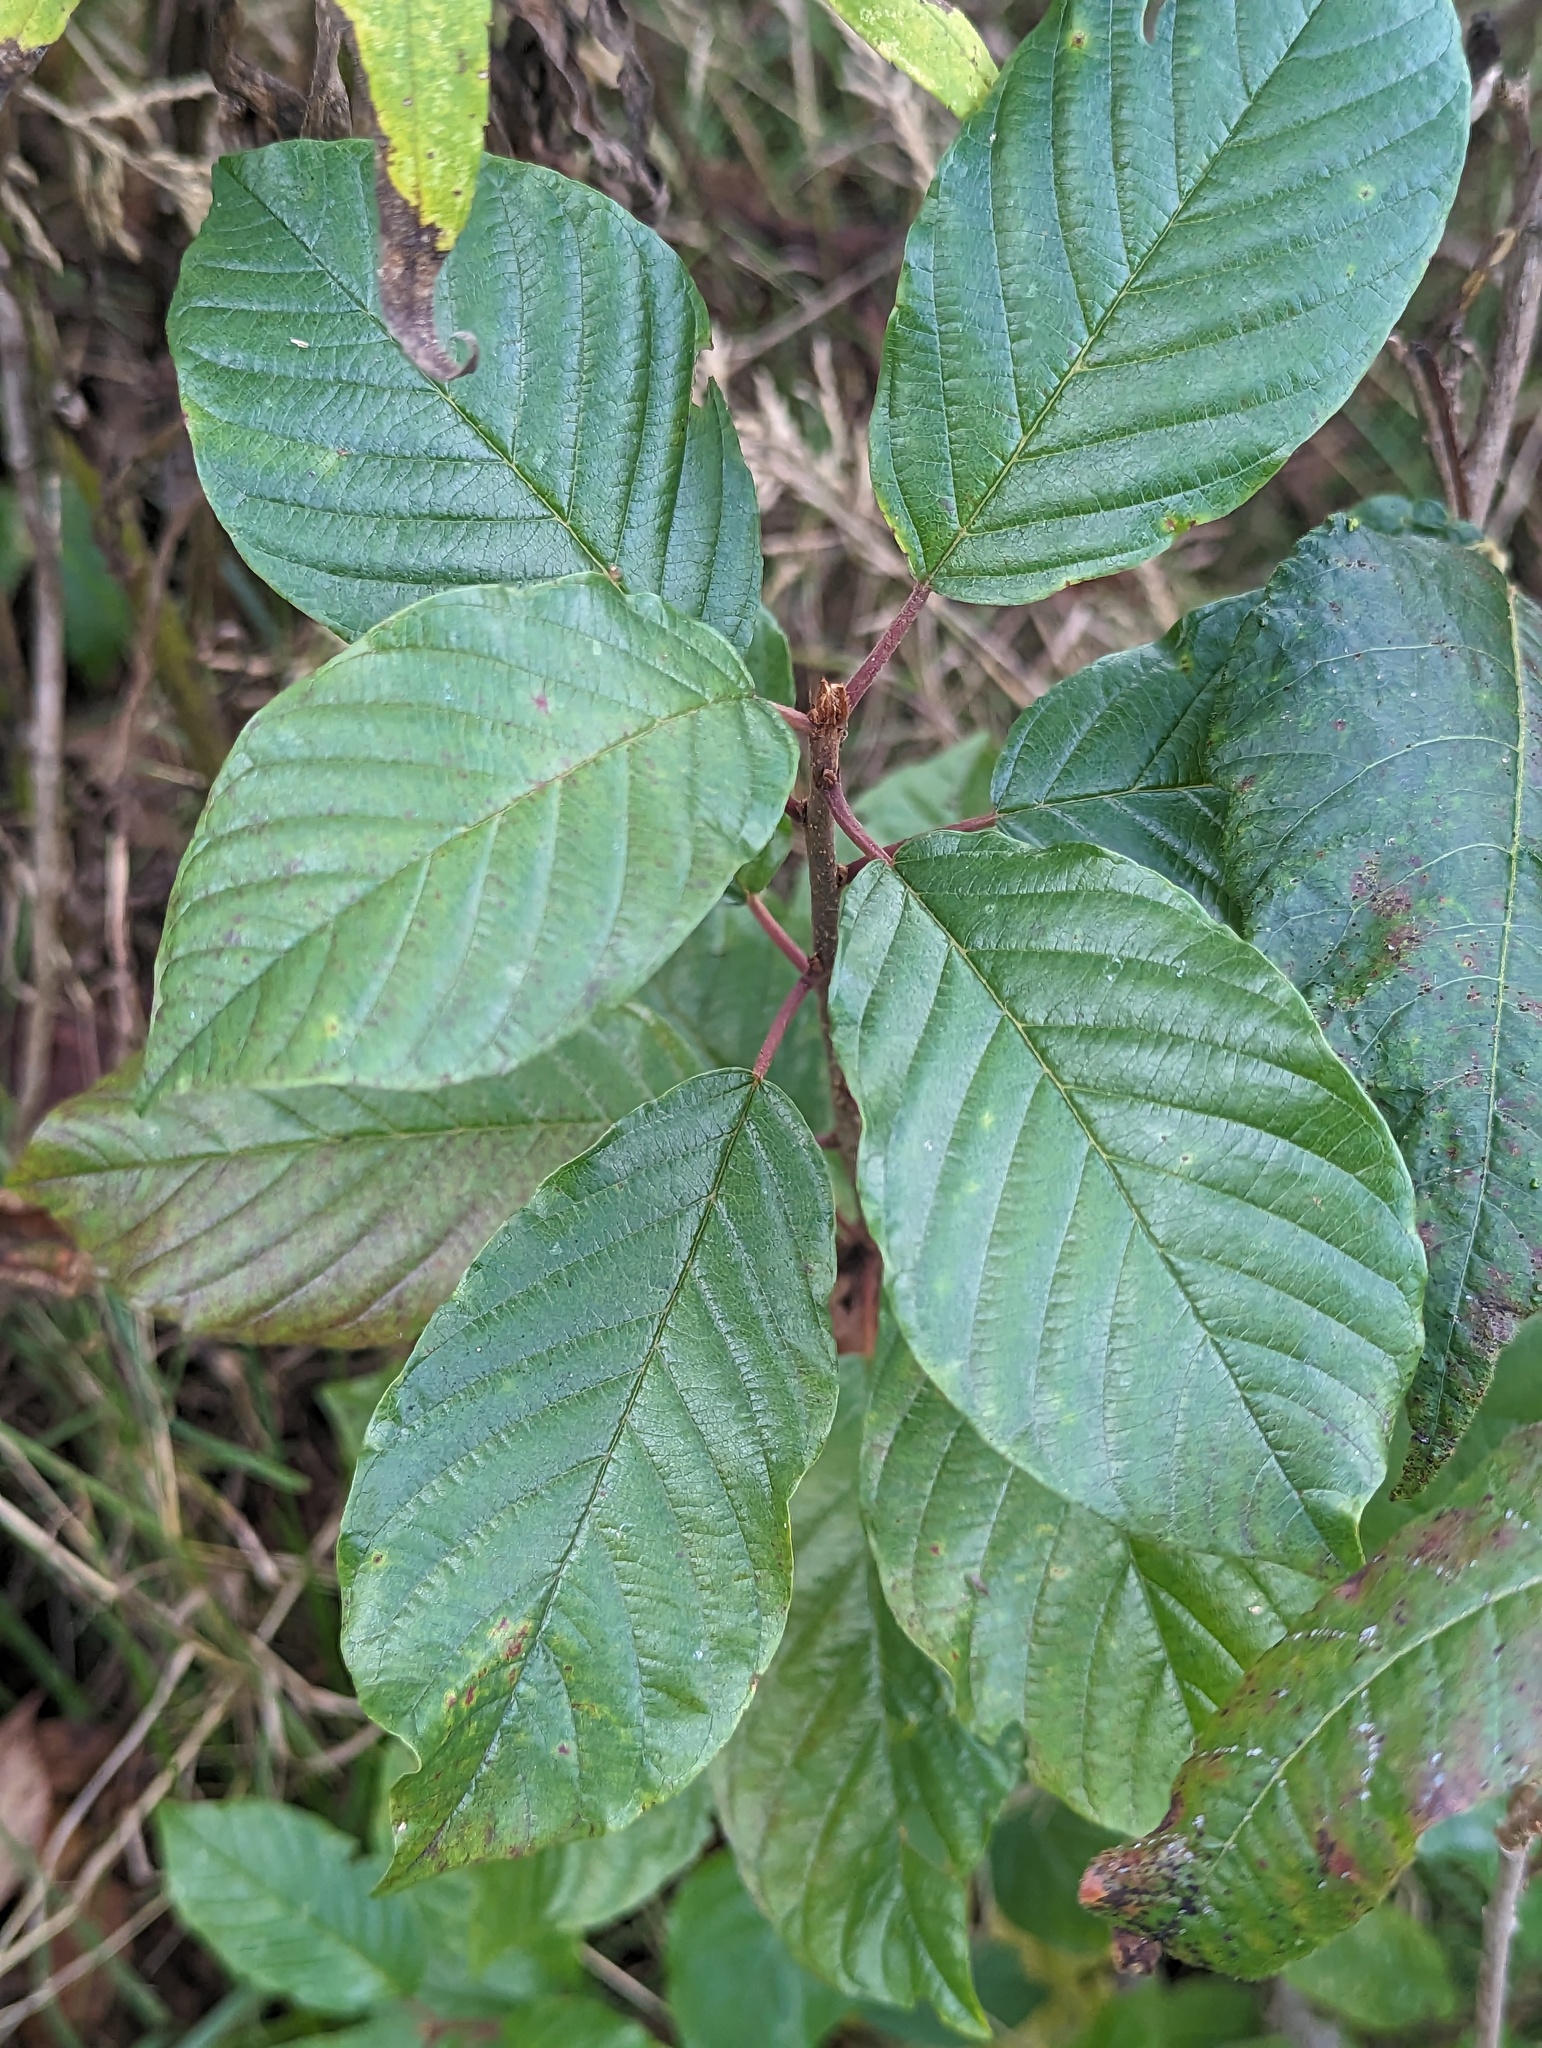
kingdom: Plantae
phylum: Tracheophyta
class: Magnoliopsida
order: Rosales
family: Rhamnaceae
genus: Frangula
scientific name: Frangula alnus
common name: Alder buckthorn
